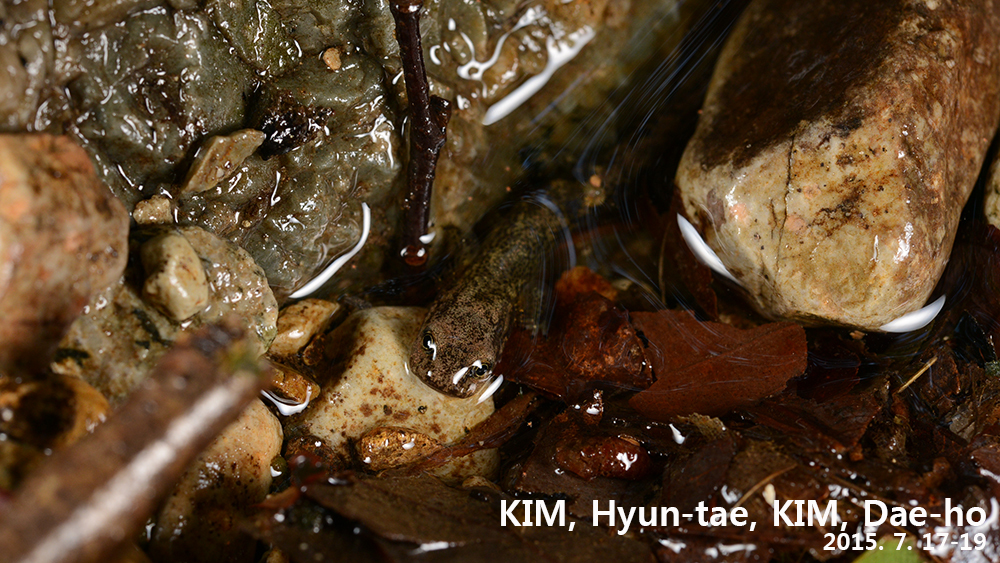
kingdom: Animalia
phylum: Chordata
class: Amphibia
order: Caudata
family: Hynobiidae
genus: Onychodactylus
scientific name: Onychodactylus
